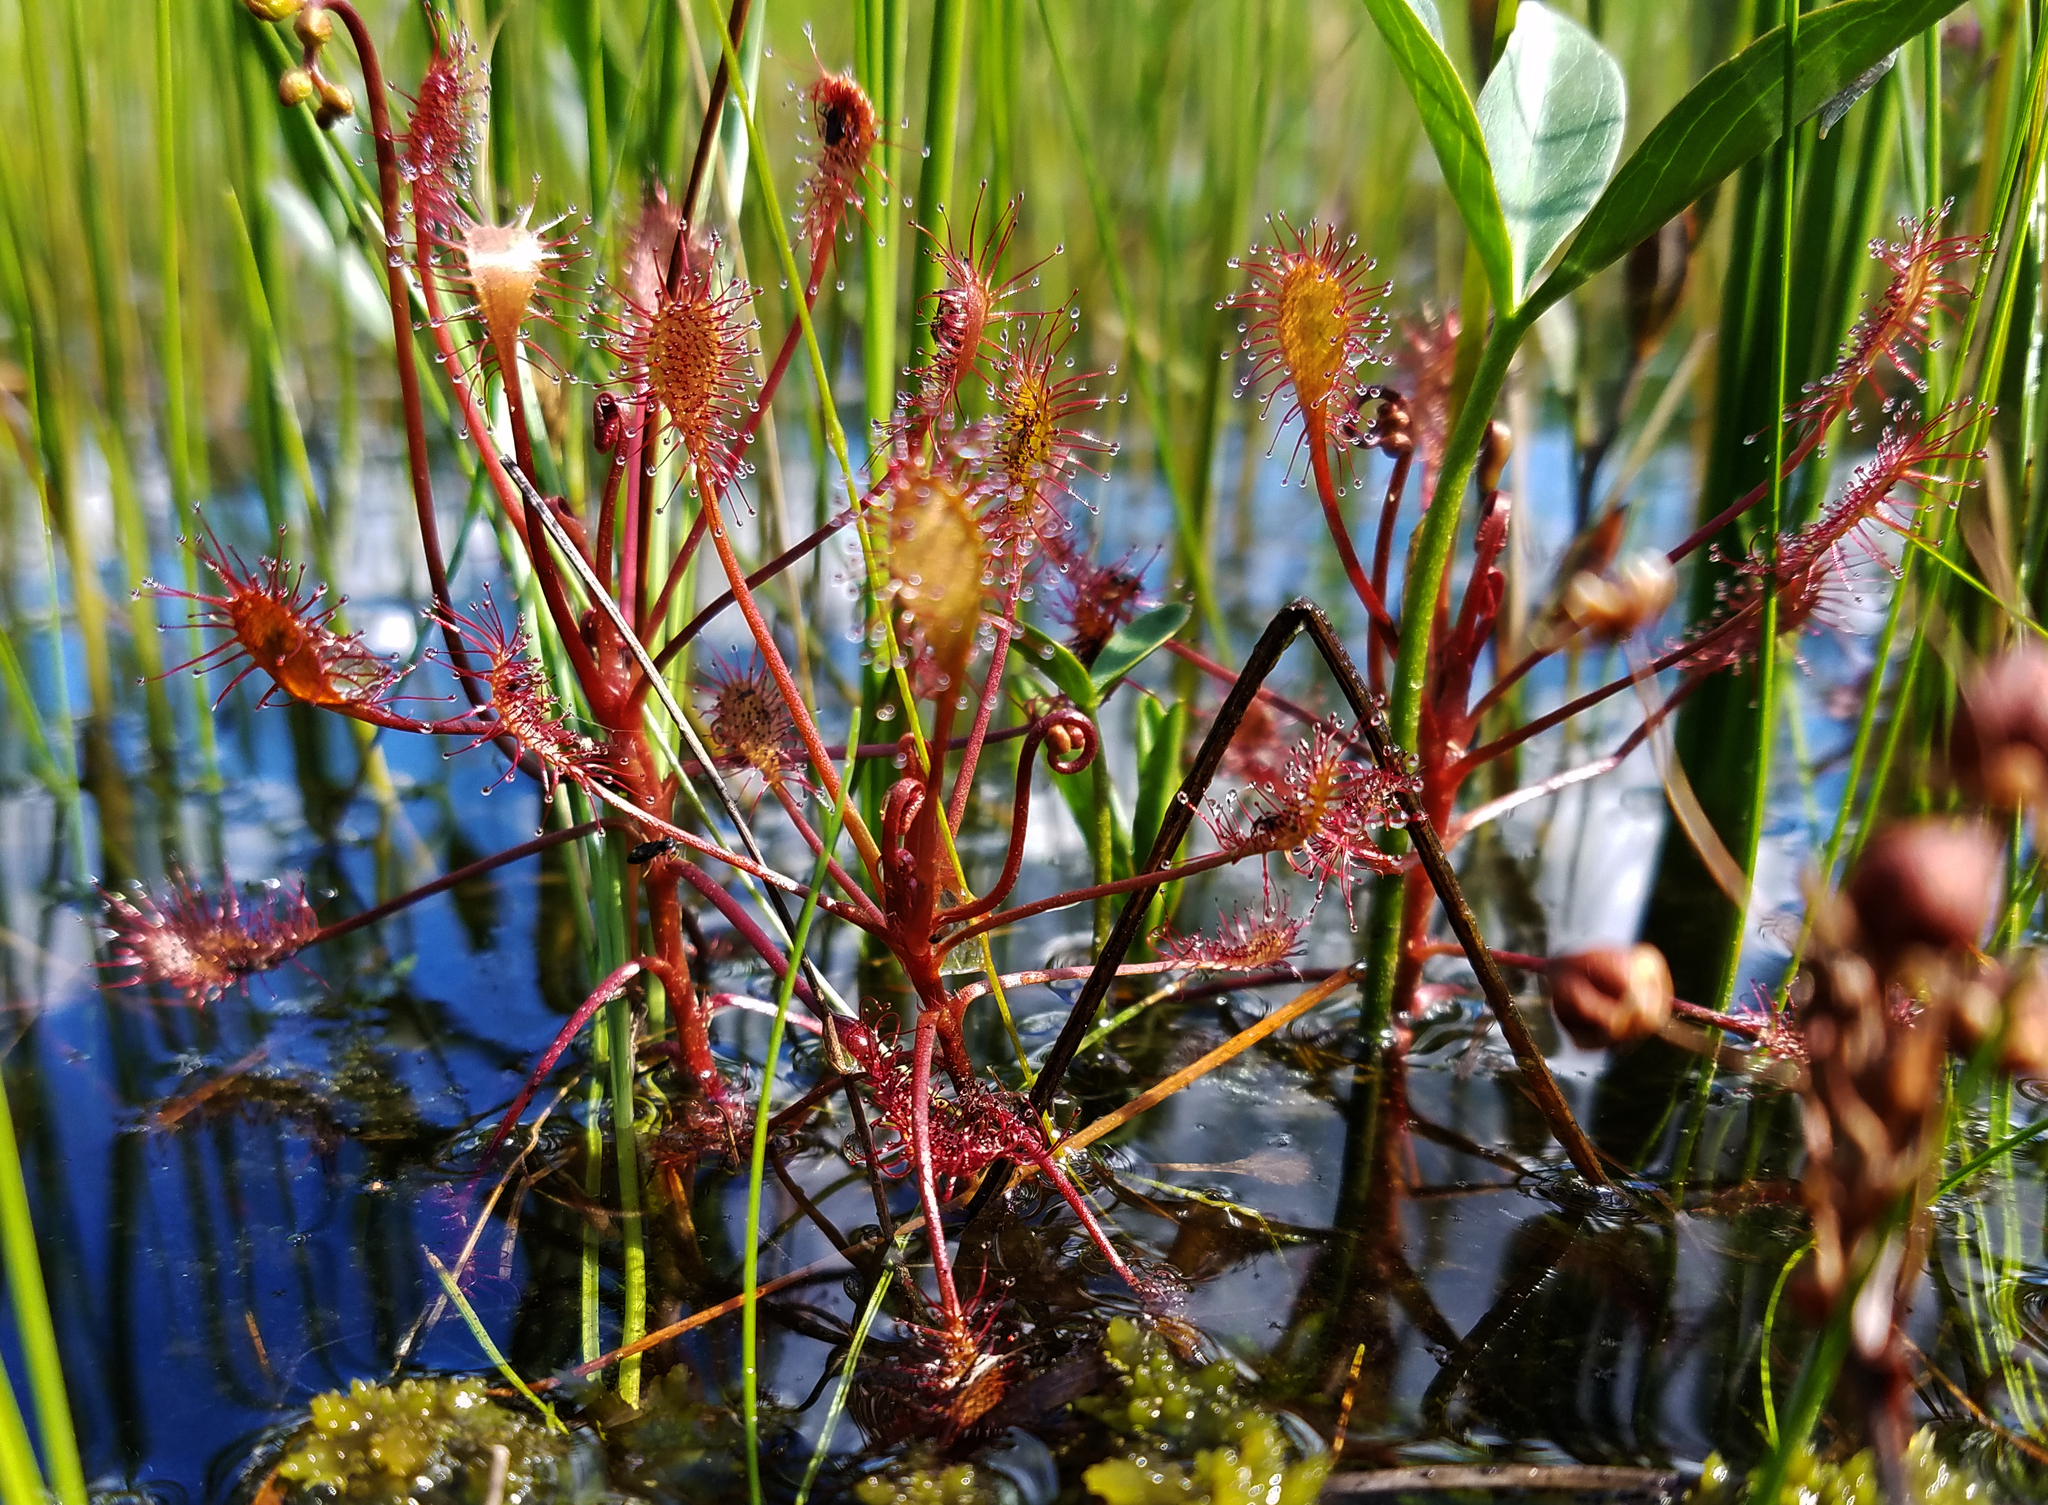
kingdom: Plantae
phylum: Tracheophyta
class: Magnoliopsida
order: Caryophyllales
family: Droseraceae
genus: Drosera
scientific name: Drosera intermedia
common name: Oblong-leaved sundew
